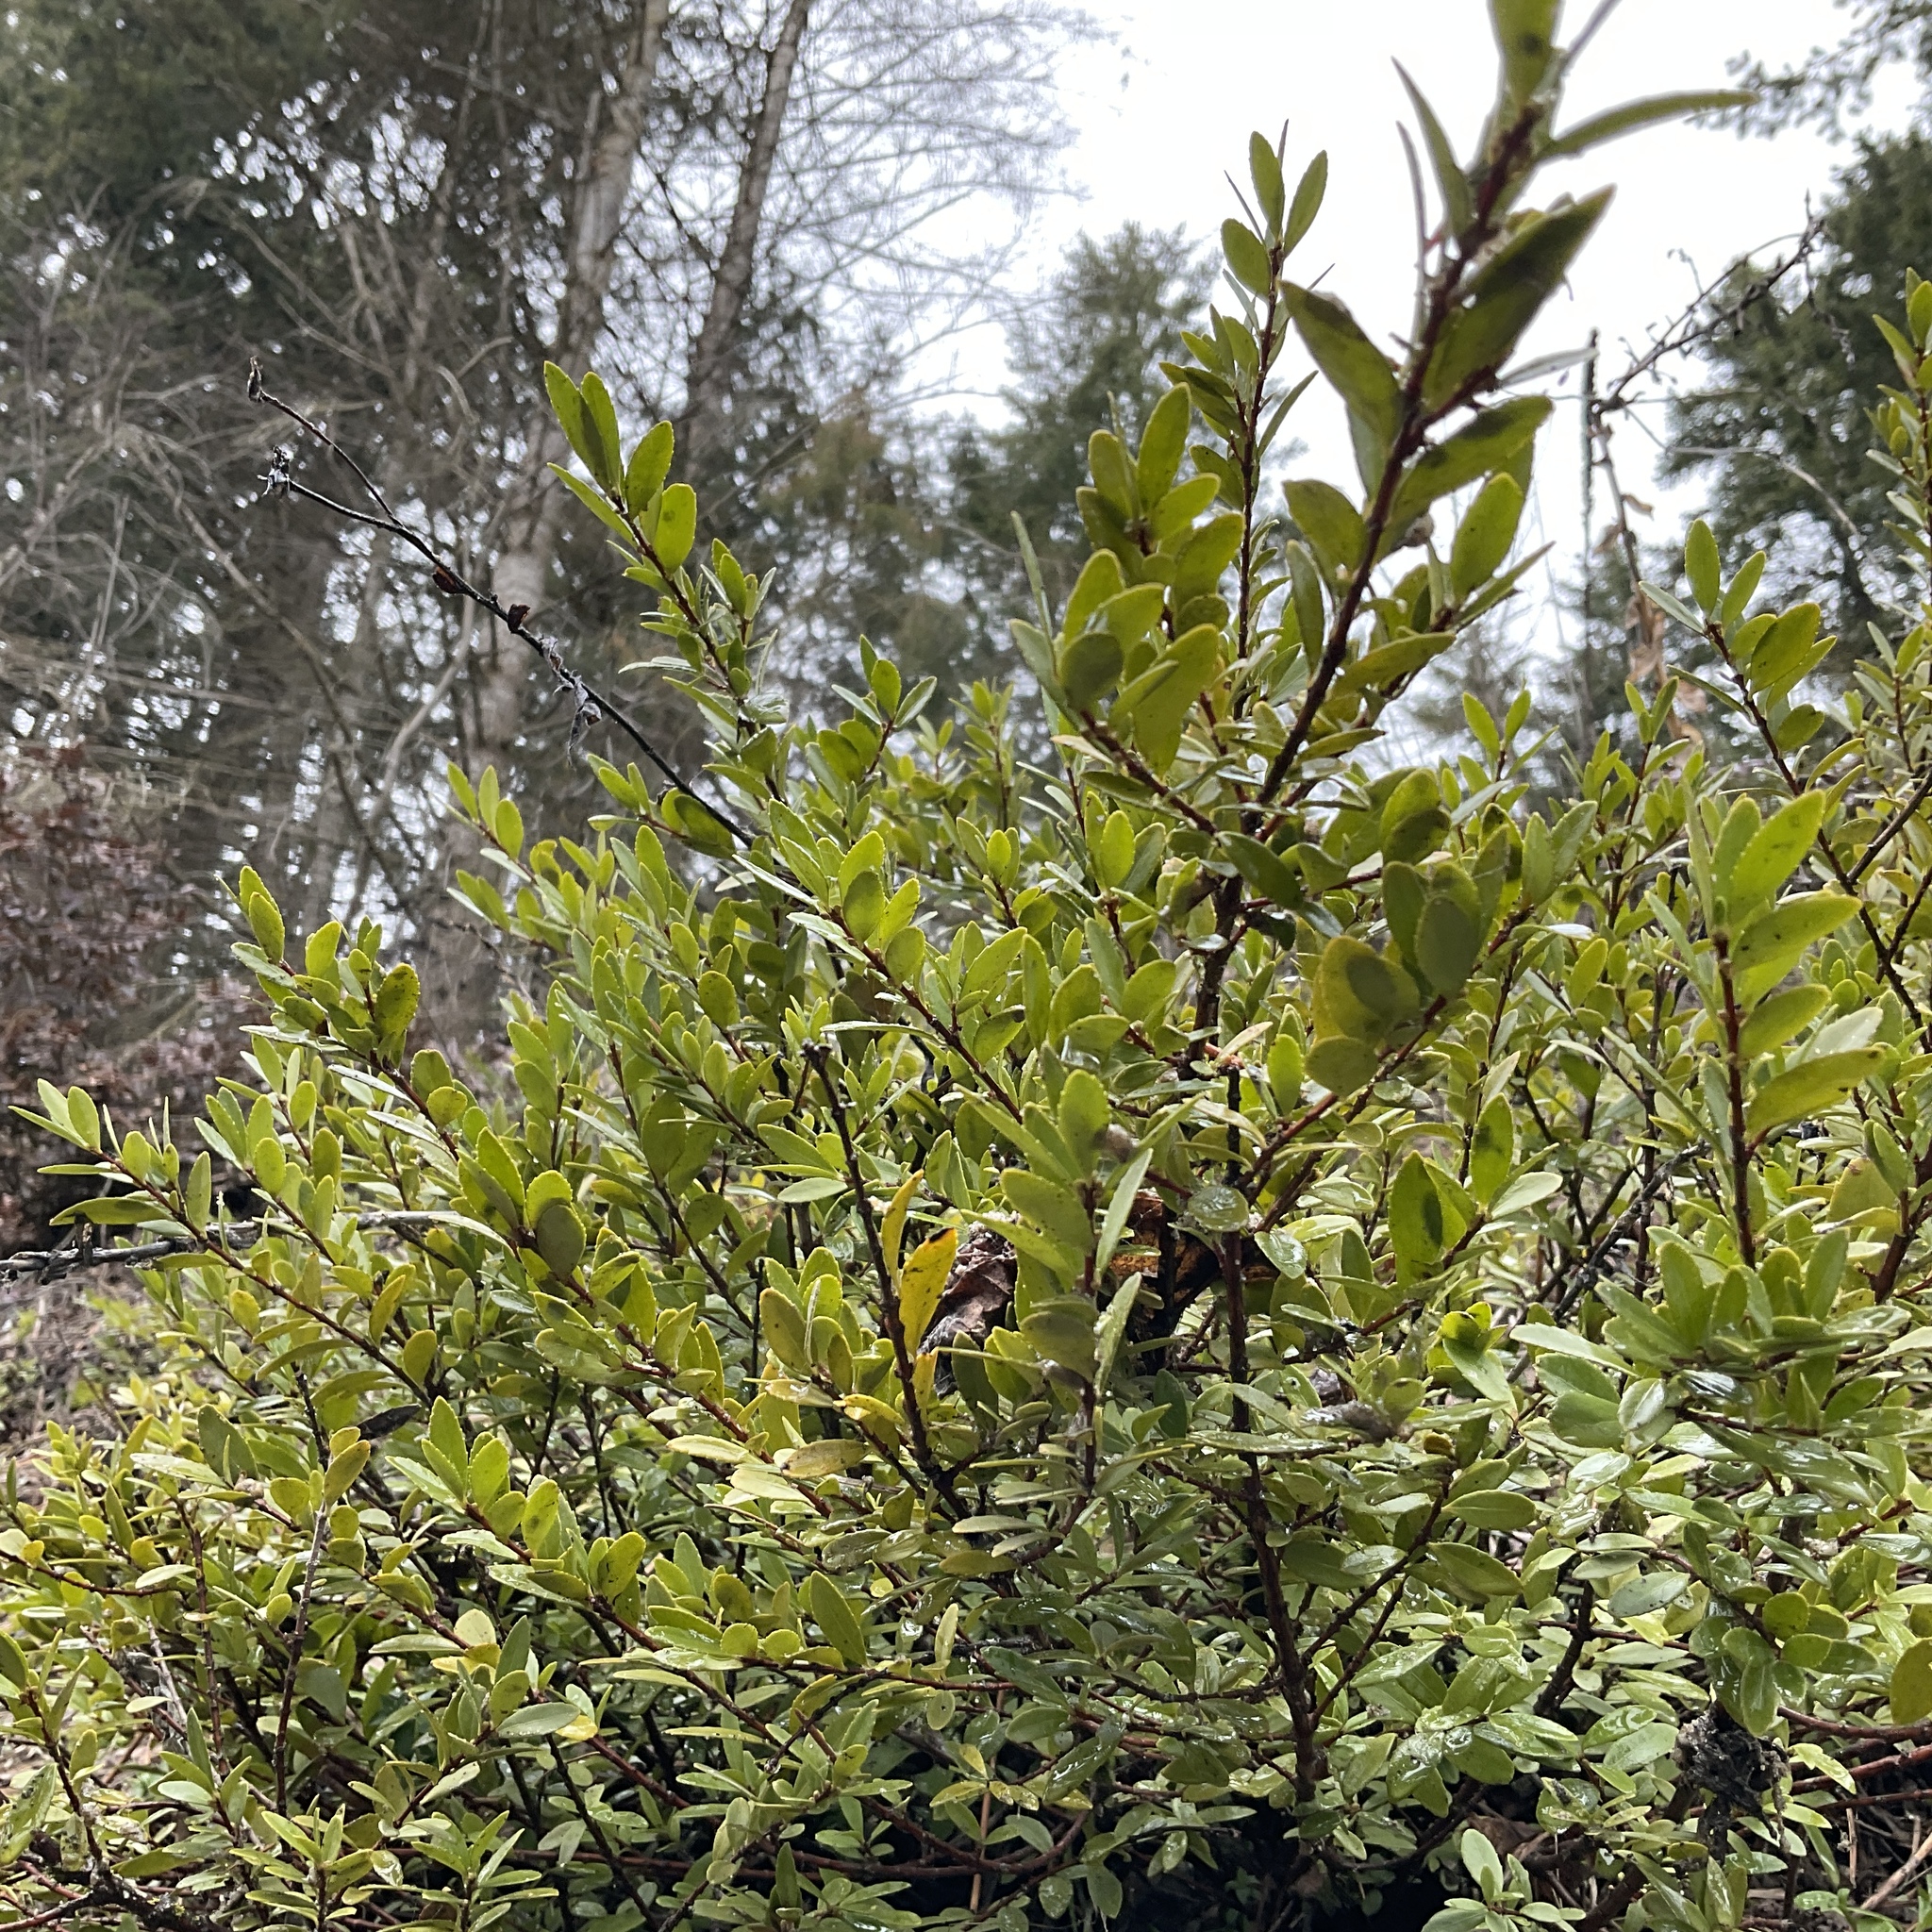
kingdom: Plantae
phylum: Tracheophyta
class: Magnoliopsida
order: Celastrales
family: Celastraceae
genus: Paxistima
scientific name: Paxistima myrsinites
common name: Mountain-lover
